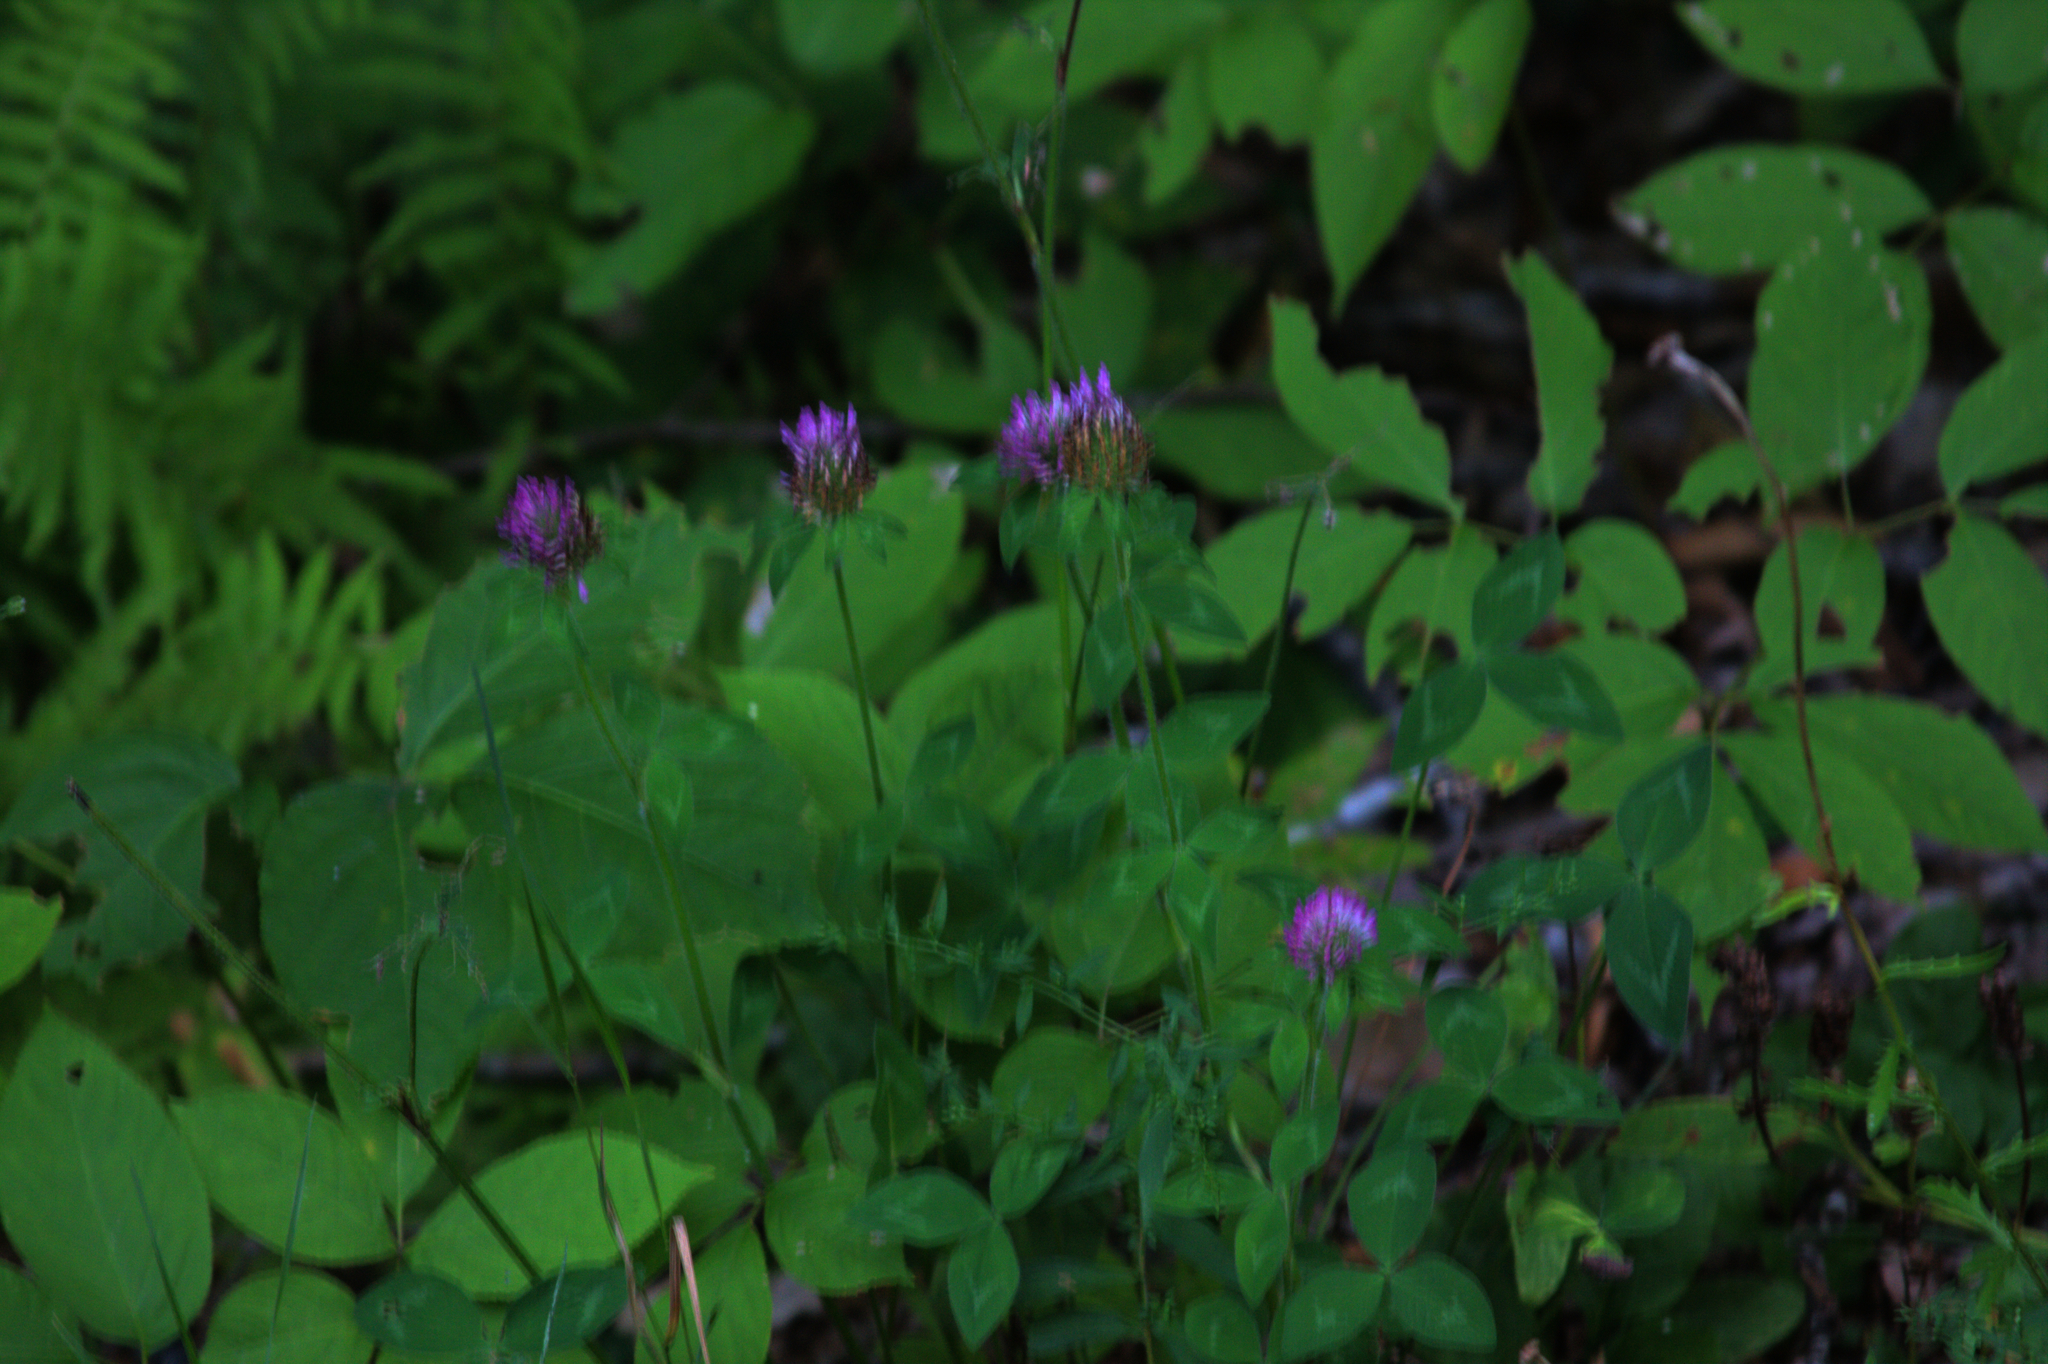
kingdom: Plantae
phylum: Tracheophyta
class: Magnoliopsida
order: Fabales
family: Fabaceae
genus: Trifolium
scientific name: Trifolium pratense
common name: Red clover
